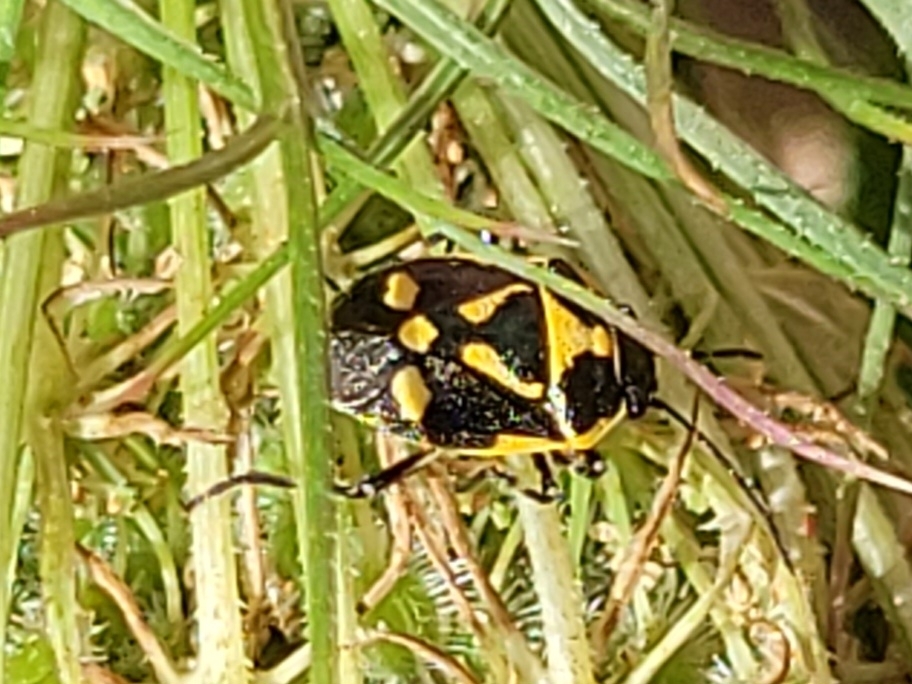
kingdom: Animalia
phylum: Arthropoda
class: Insecta
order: Hemiptera
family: Pentatomidae
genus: Eurydema
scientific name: Eurydema oleracea
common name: Cabbage bug
